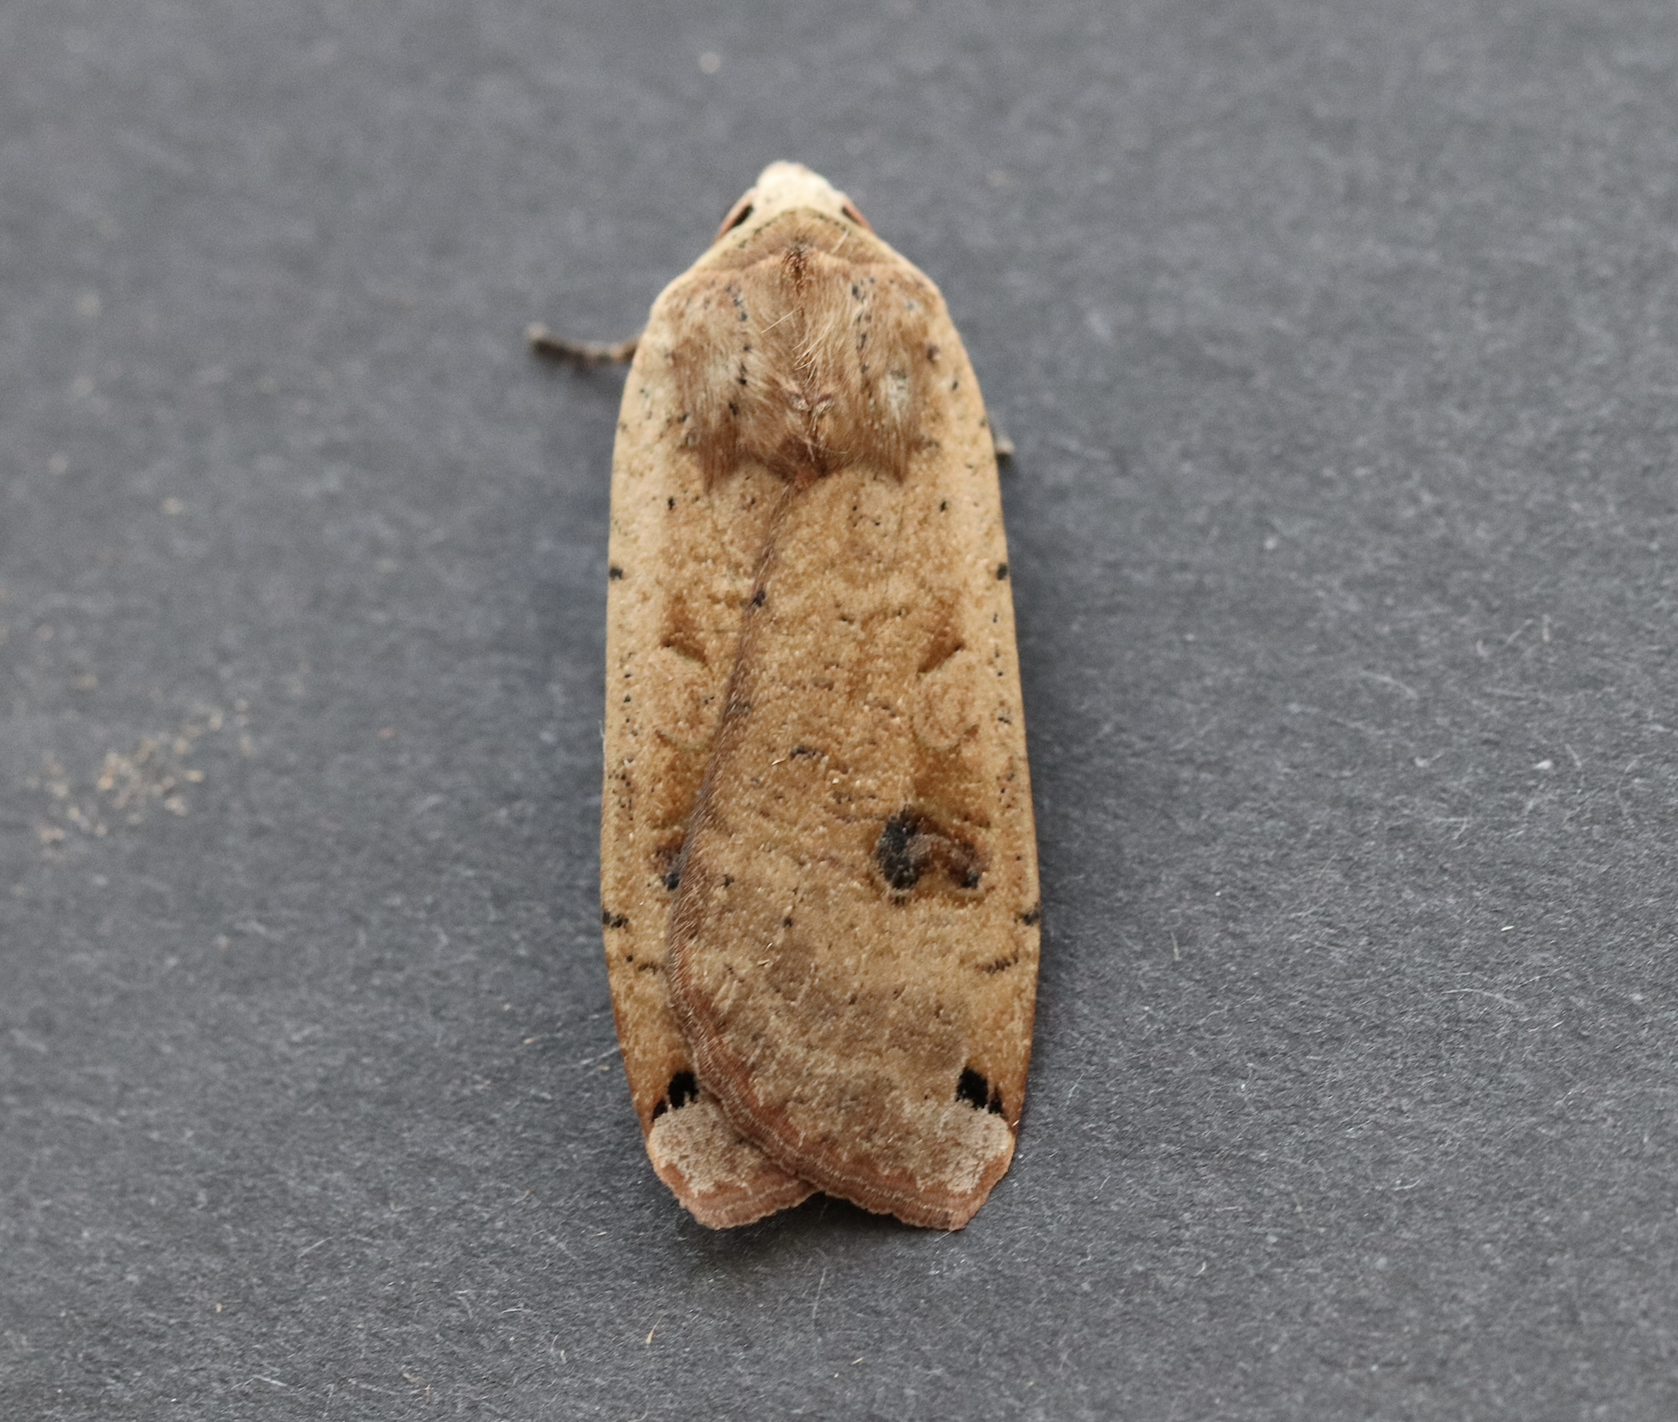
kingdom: Animalia
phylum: Arthropoda
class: Insecta
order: Lepidoptera
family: Noctuidae
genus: Noctua
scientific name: Noctua pronuba
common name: Large yellow underwing
